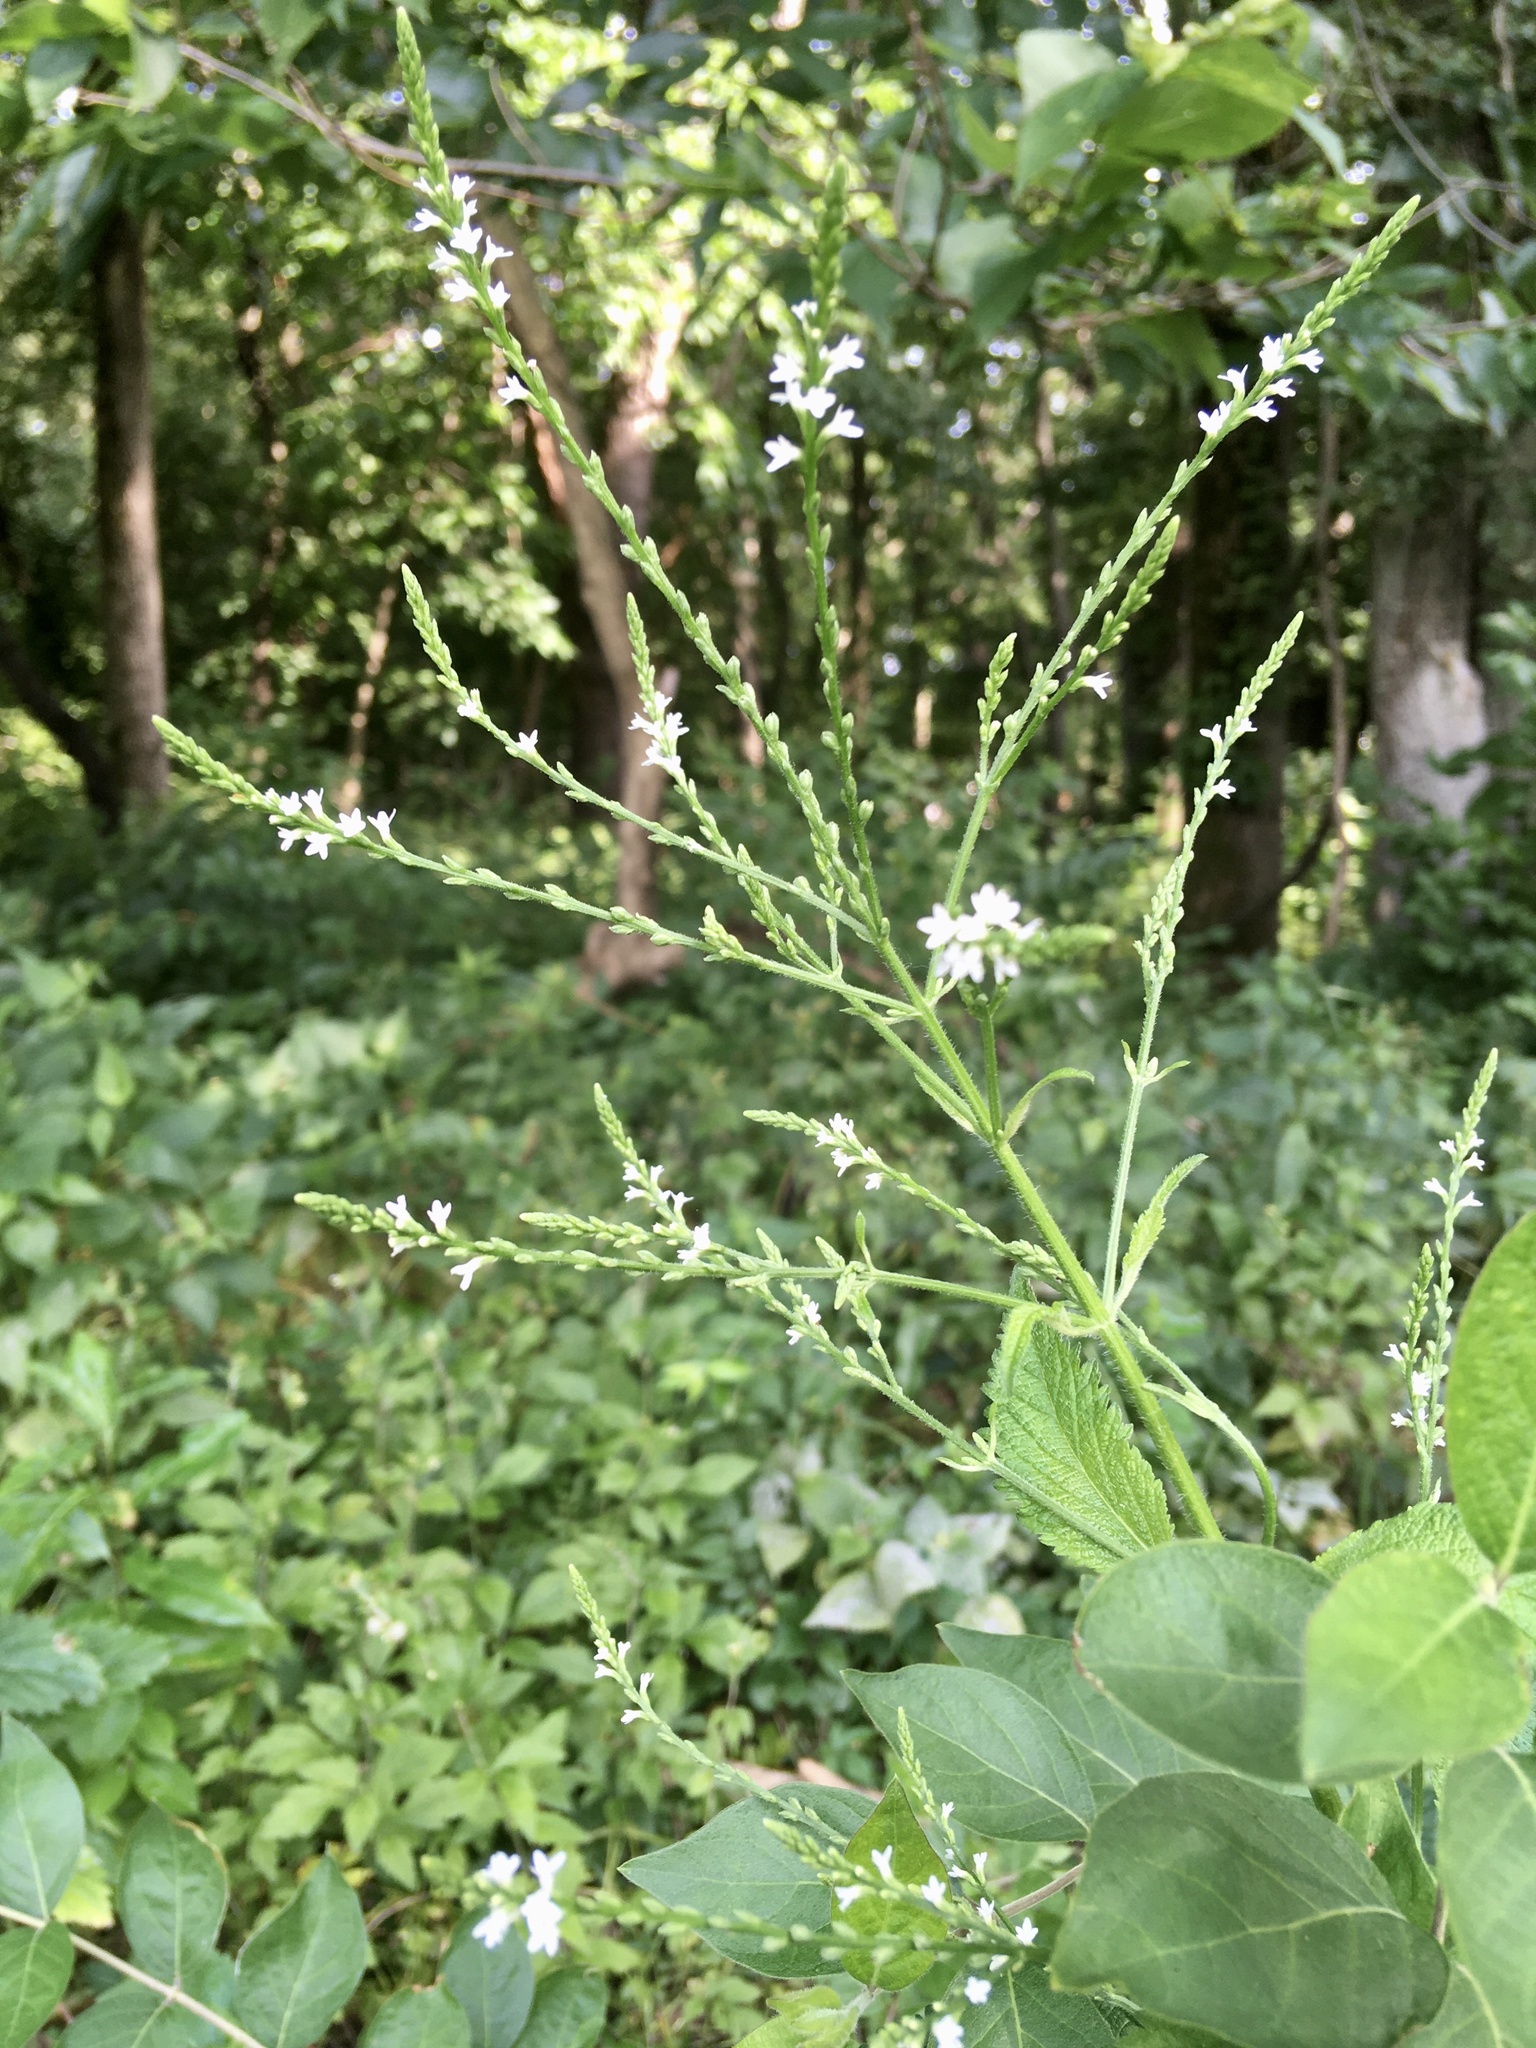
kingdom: Plantae
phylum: Tracheophyta
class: Magnoliopsida
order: Lamiales
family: Verbenaceae
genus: Verbena
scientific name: Verbena urticifolia
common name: Nettle-leaved vervain
